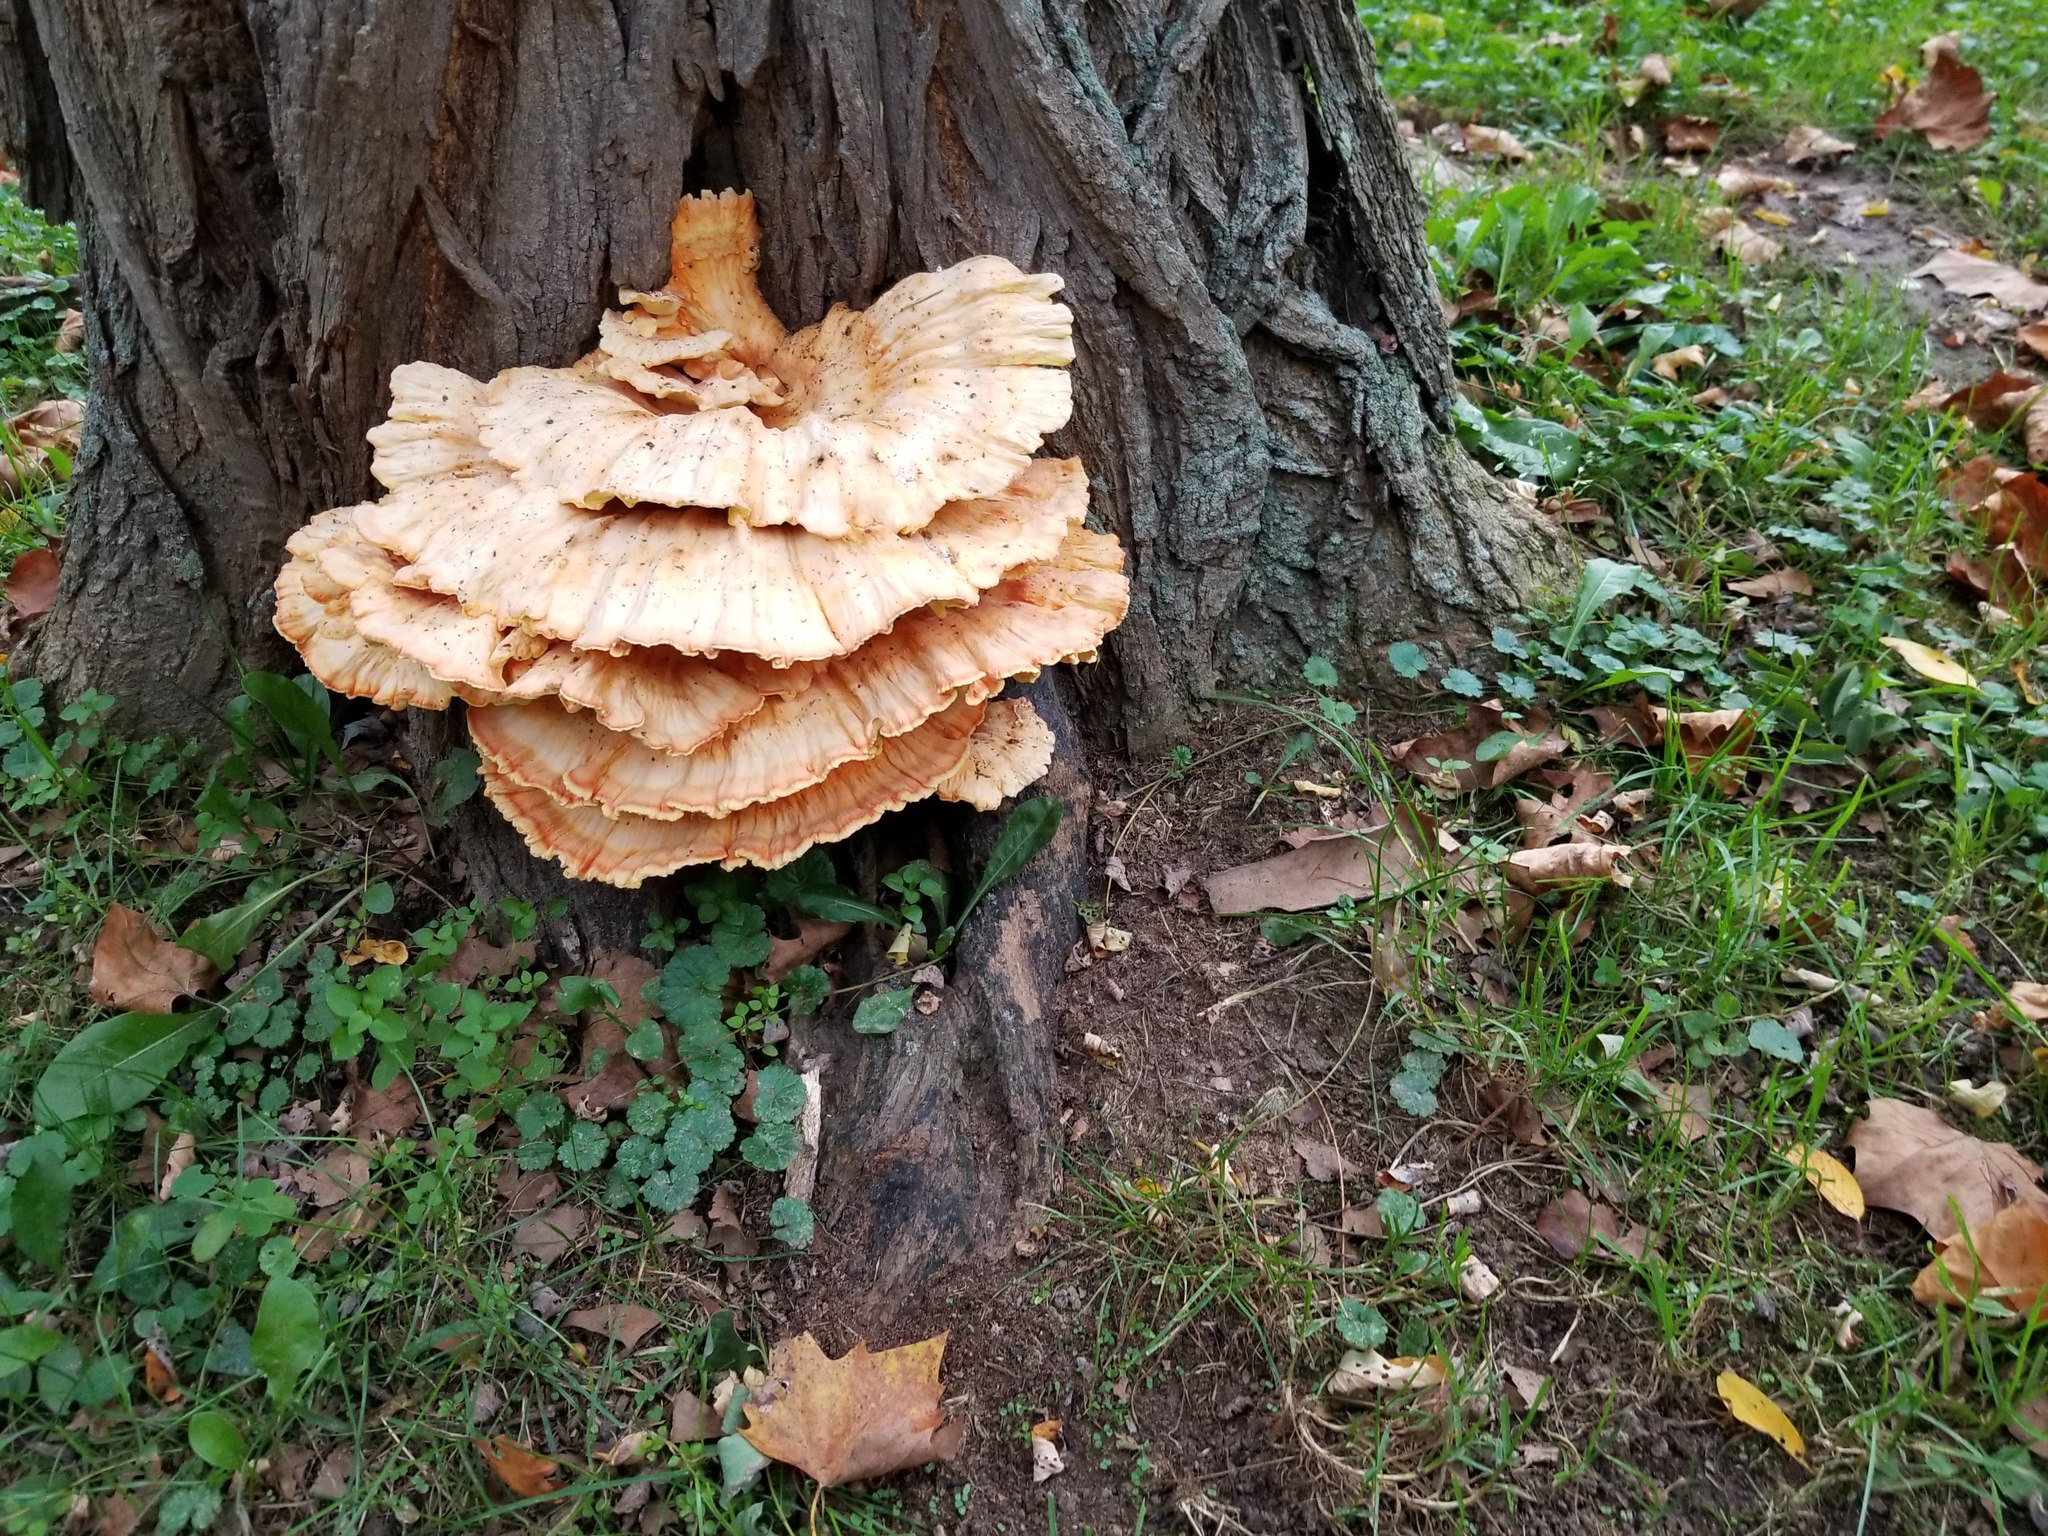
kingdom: Fungi
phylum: Basidiomycota
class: Agaricomycetes
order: Polyporales
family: Laetiporaceae
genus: Laetiporus
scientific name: Laetiporus sulphureus
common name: Chicken of the woods
